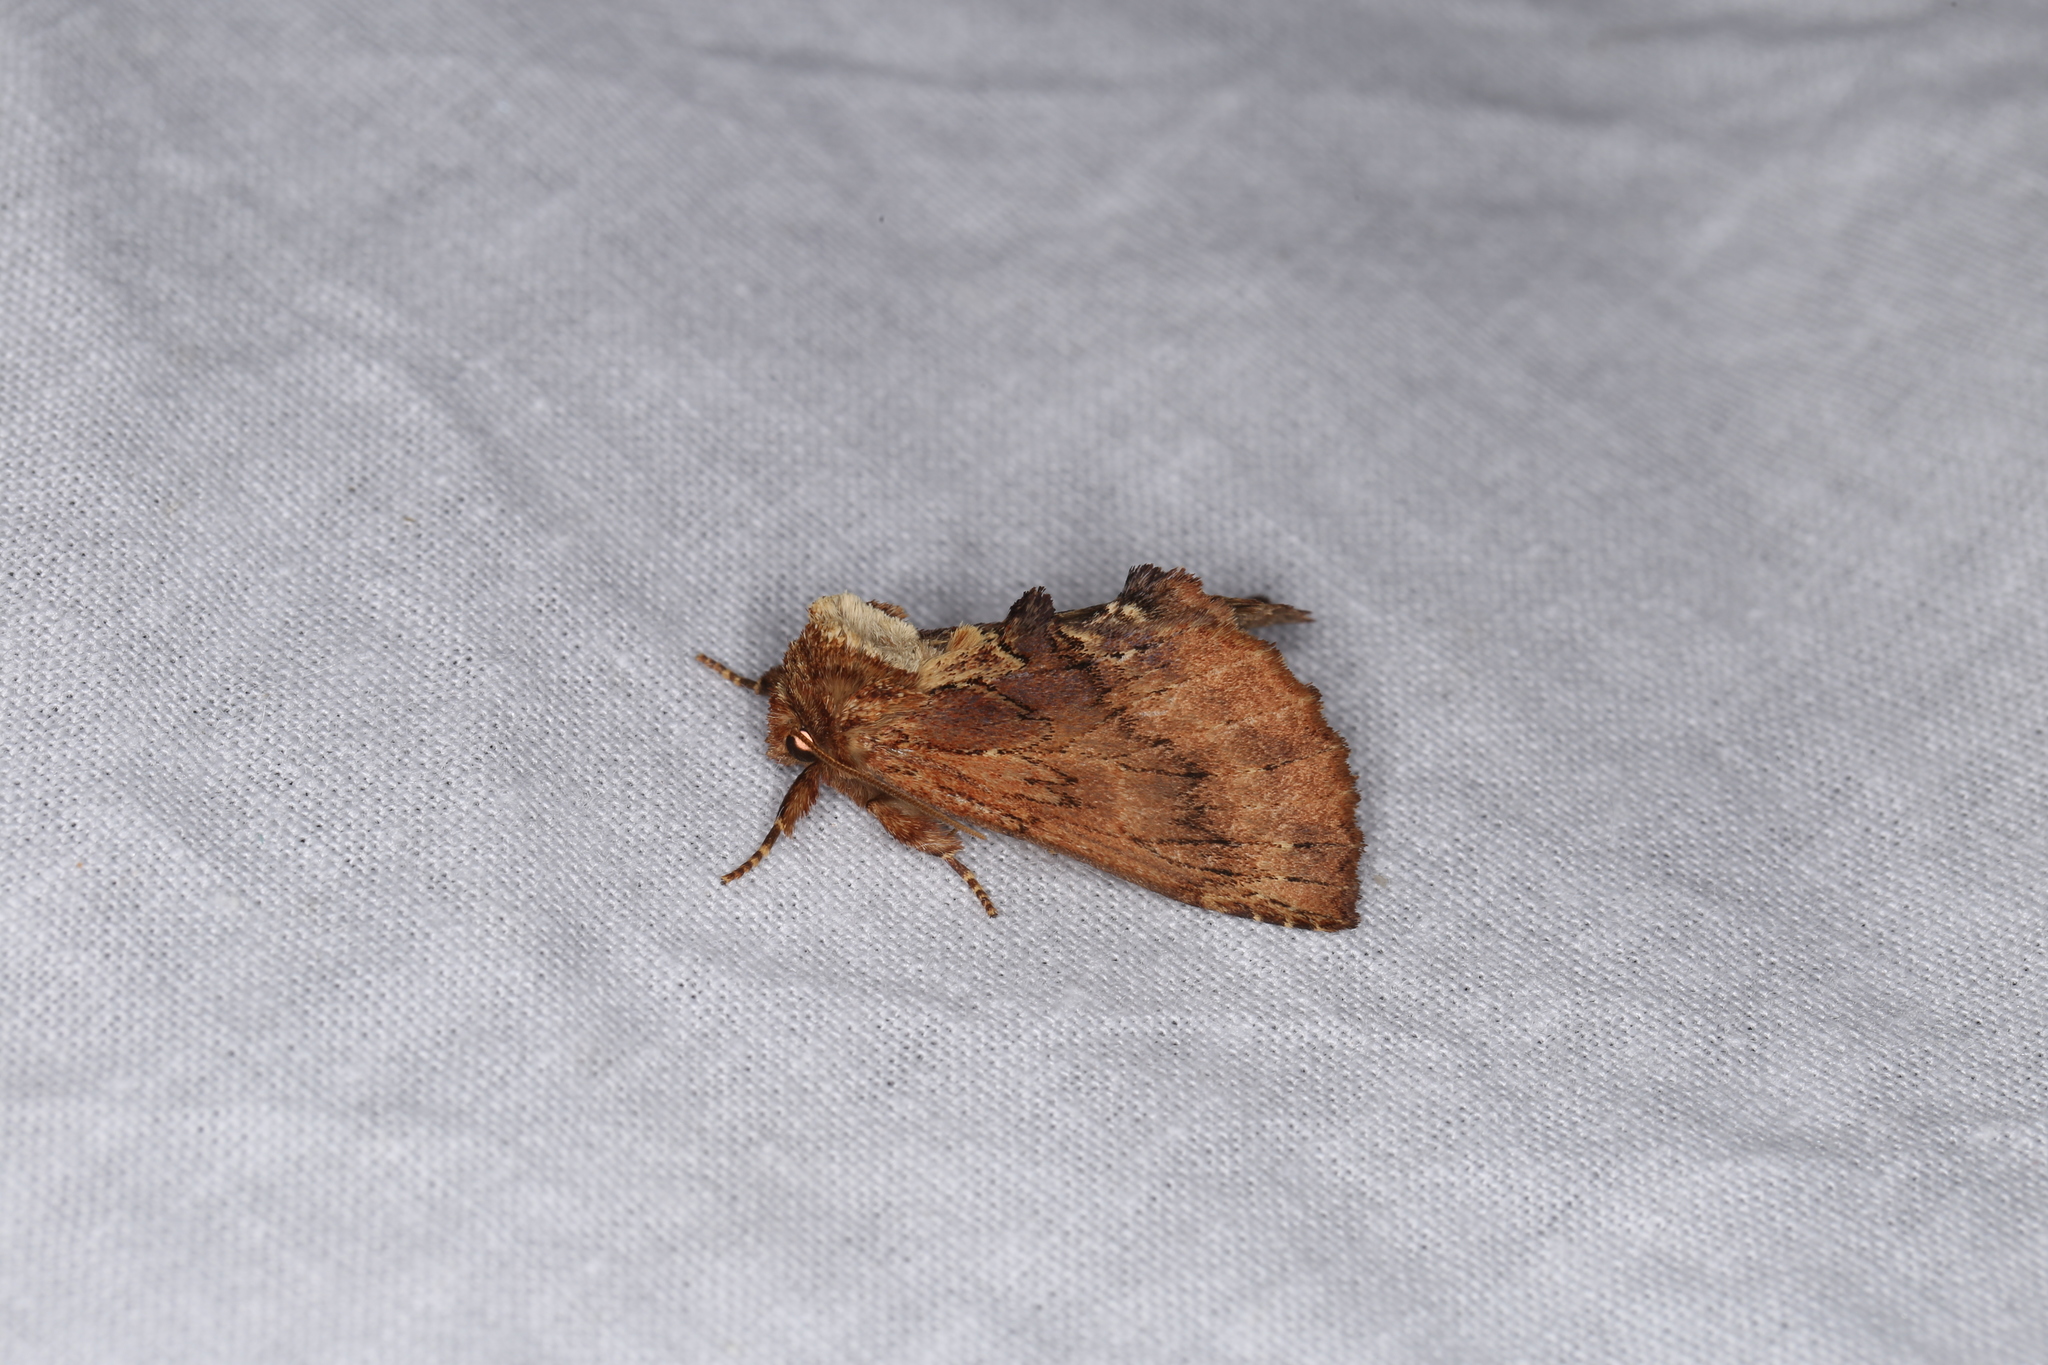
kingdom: Animalia
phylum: Arthropoda
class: Insecta
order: Lepidoptera
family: Notodontidae
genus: Ptilodon
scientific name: Ptilodon capucina
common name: Coxcomb prominent
